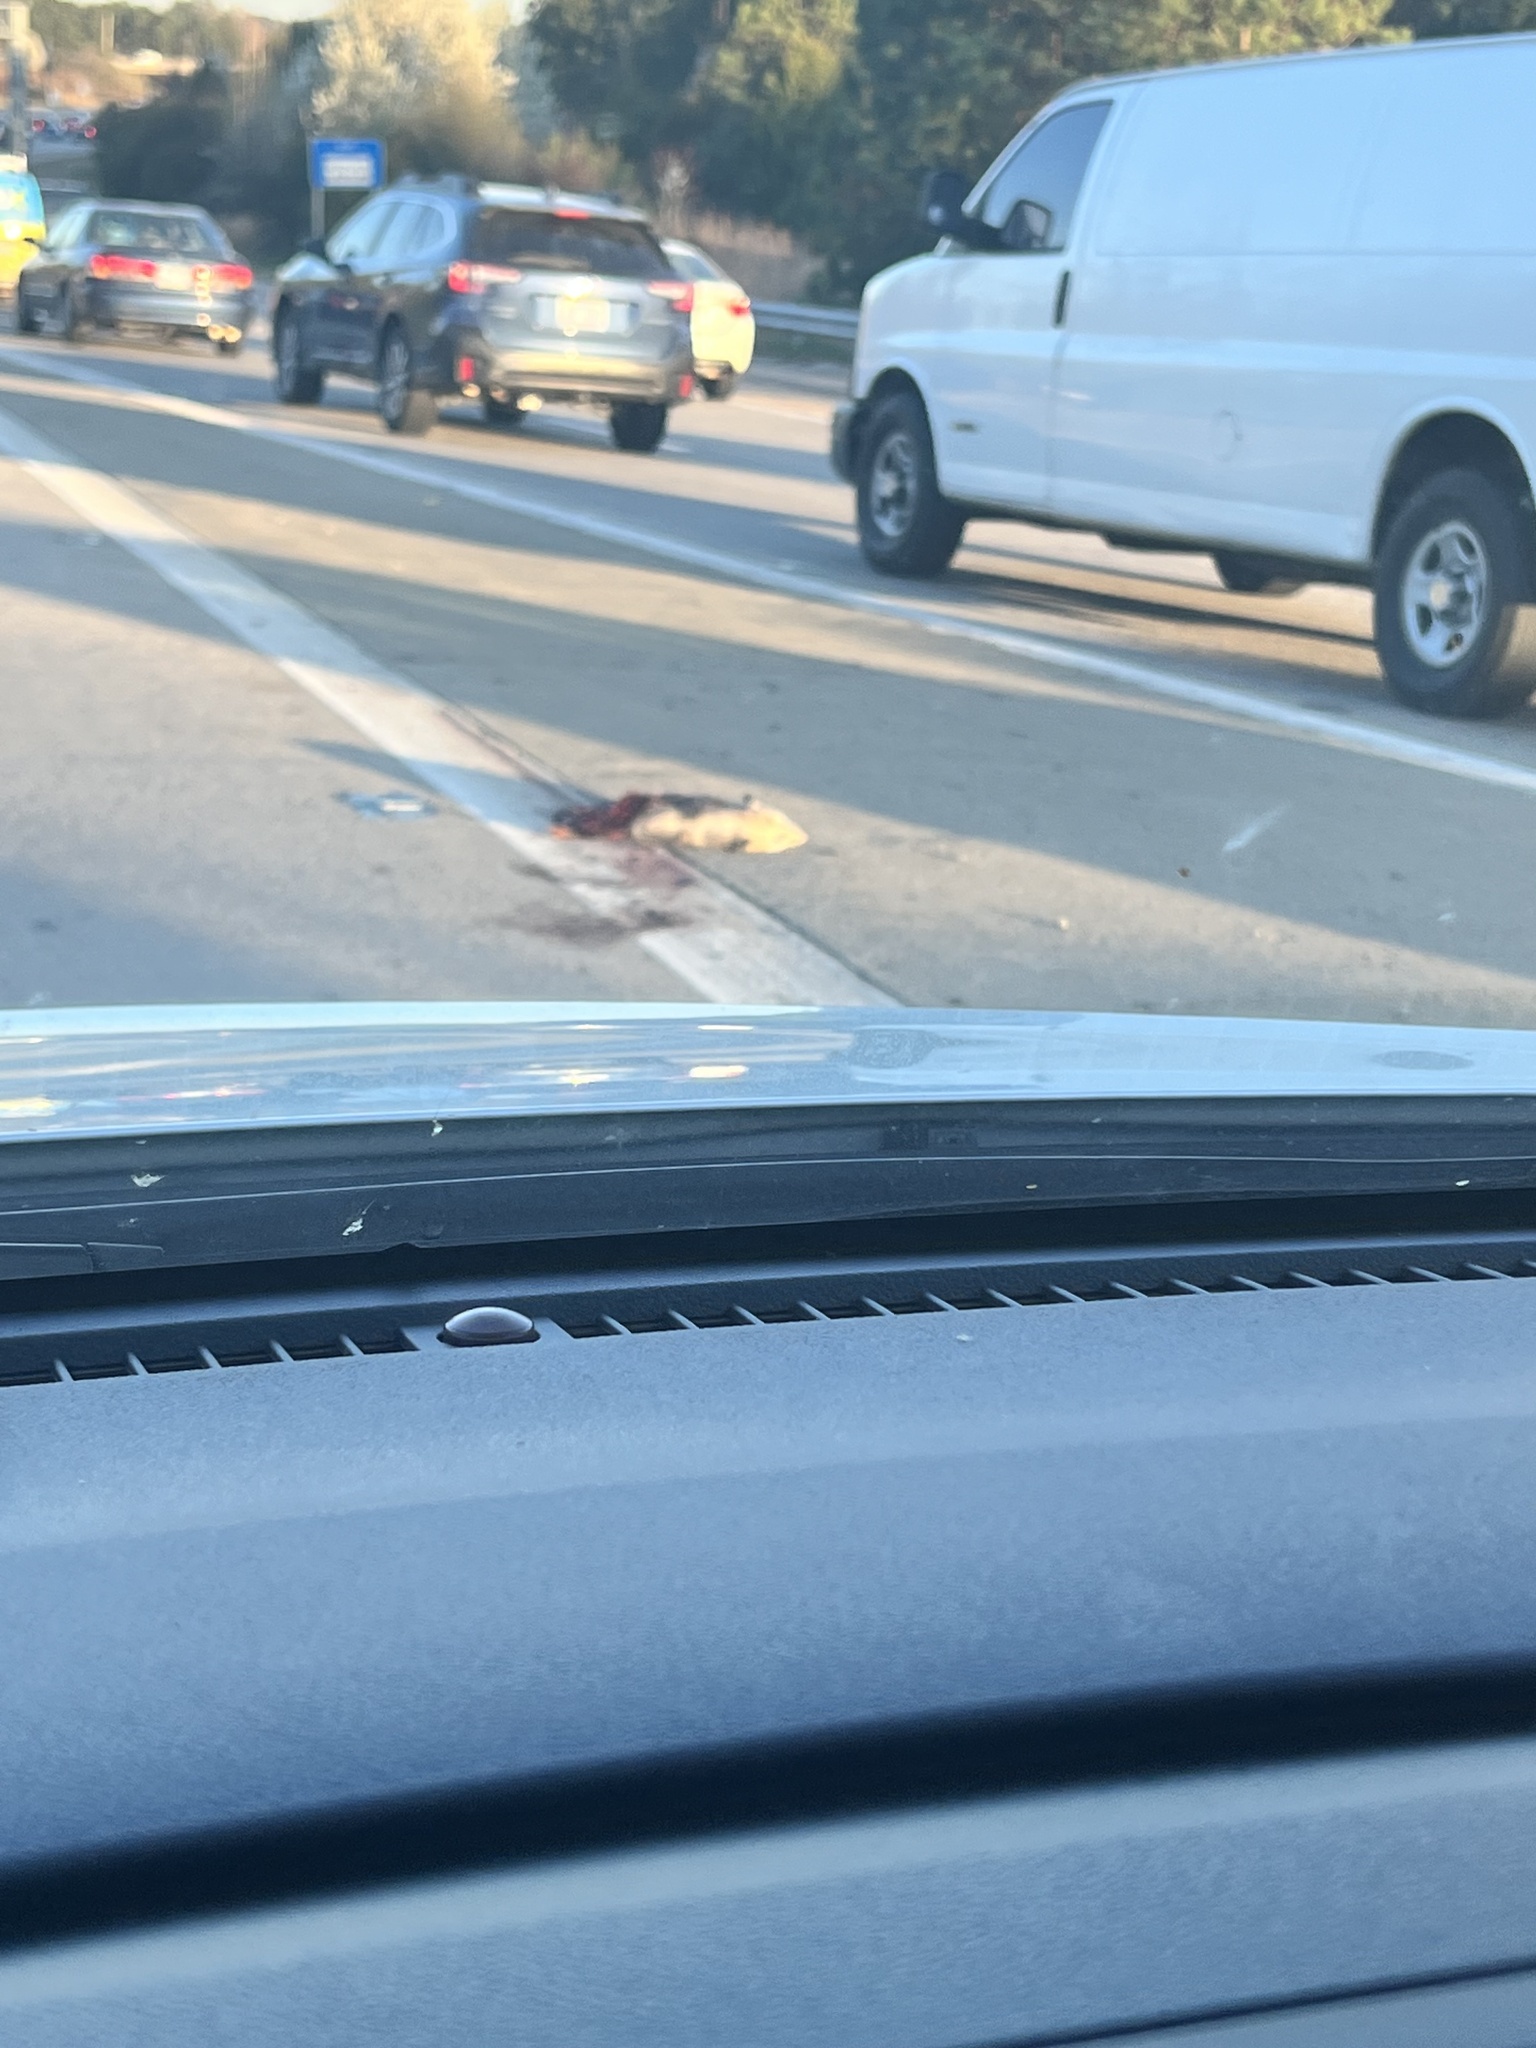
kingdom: Animalia
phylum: Chordata
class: Mammalia
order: Didelphimorphia
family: Didelphidae
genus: Didelphis
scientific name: Didelphis virginiana
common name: Virginia opossum
